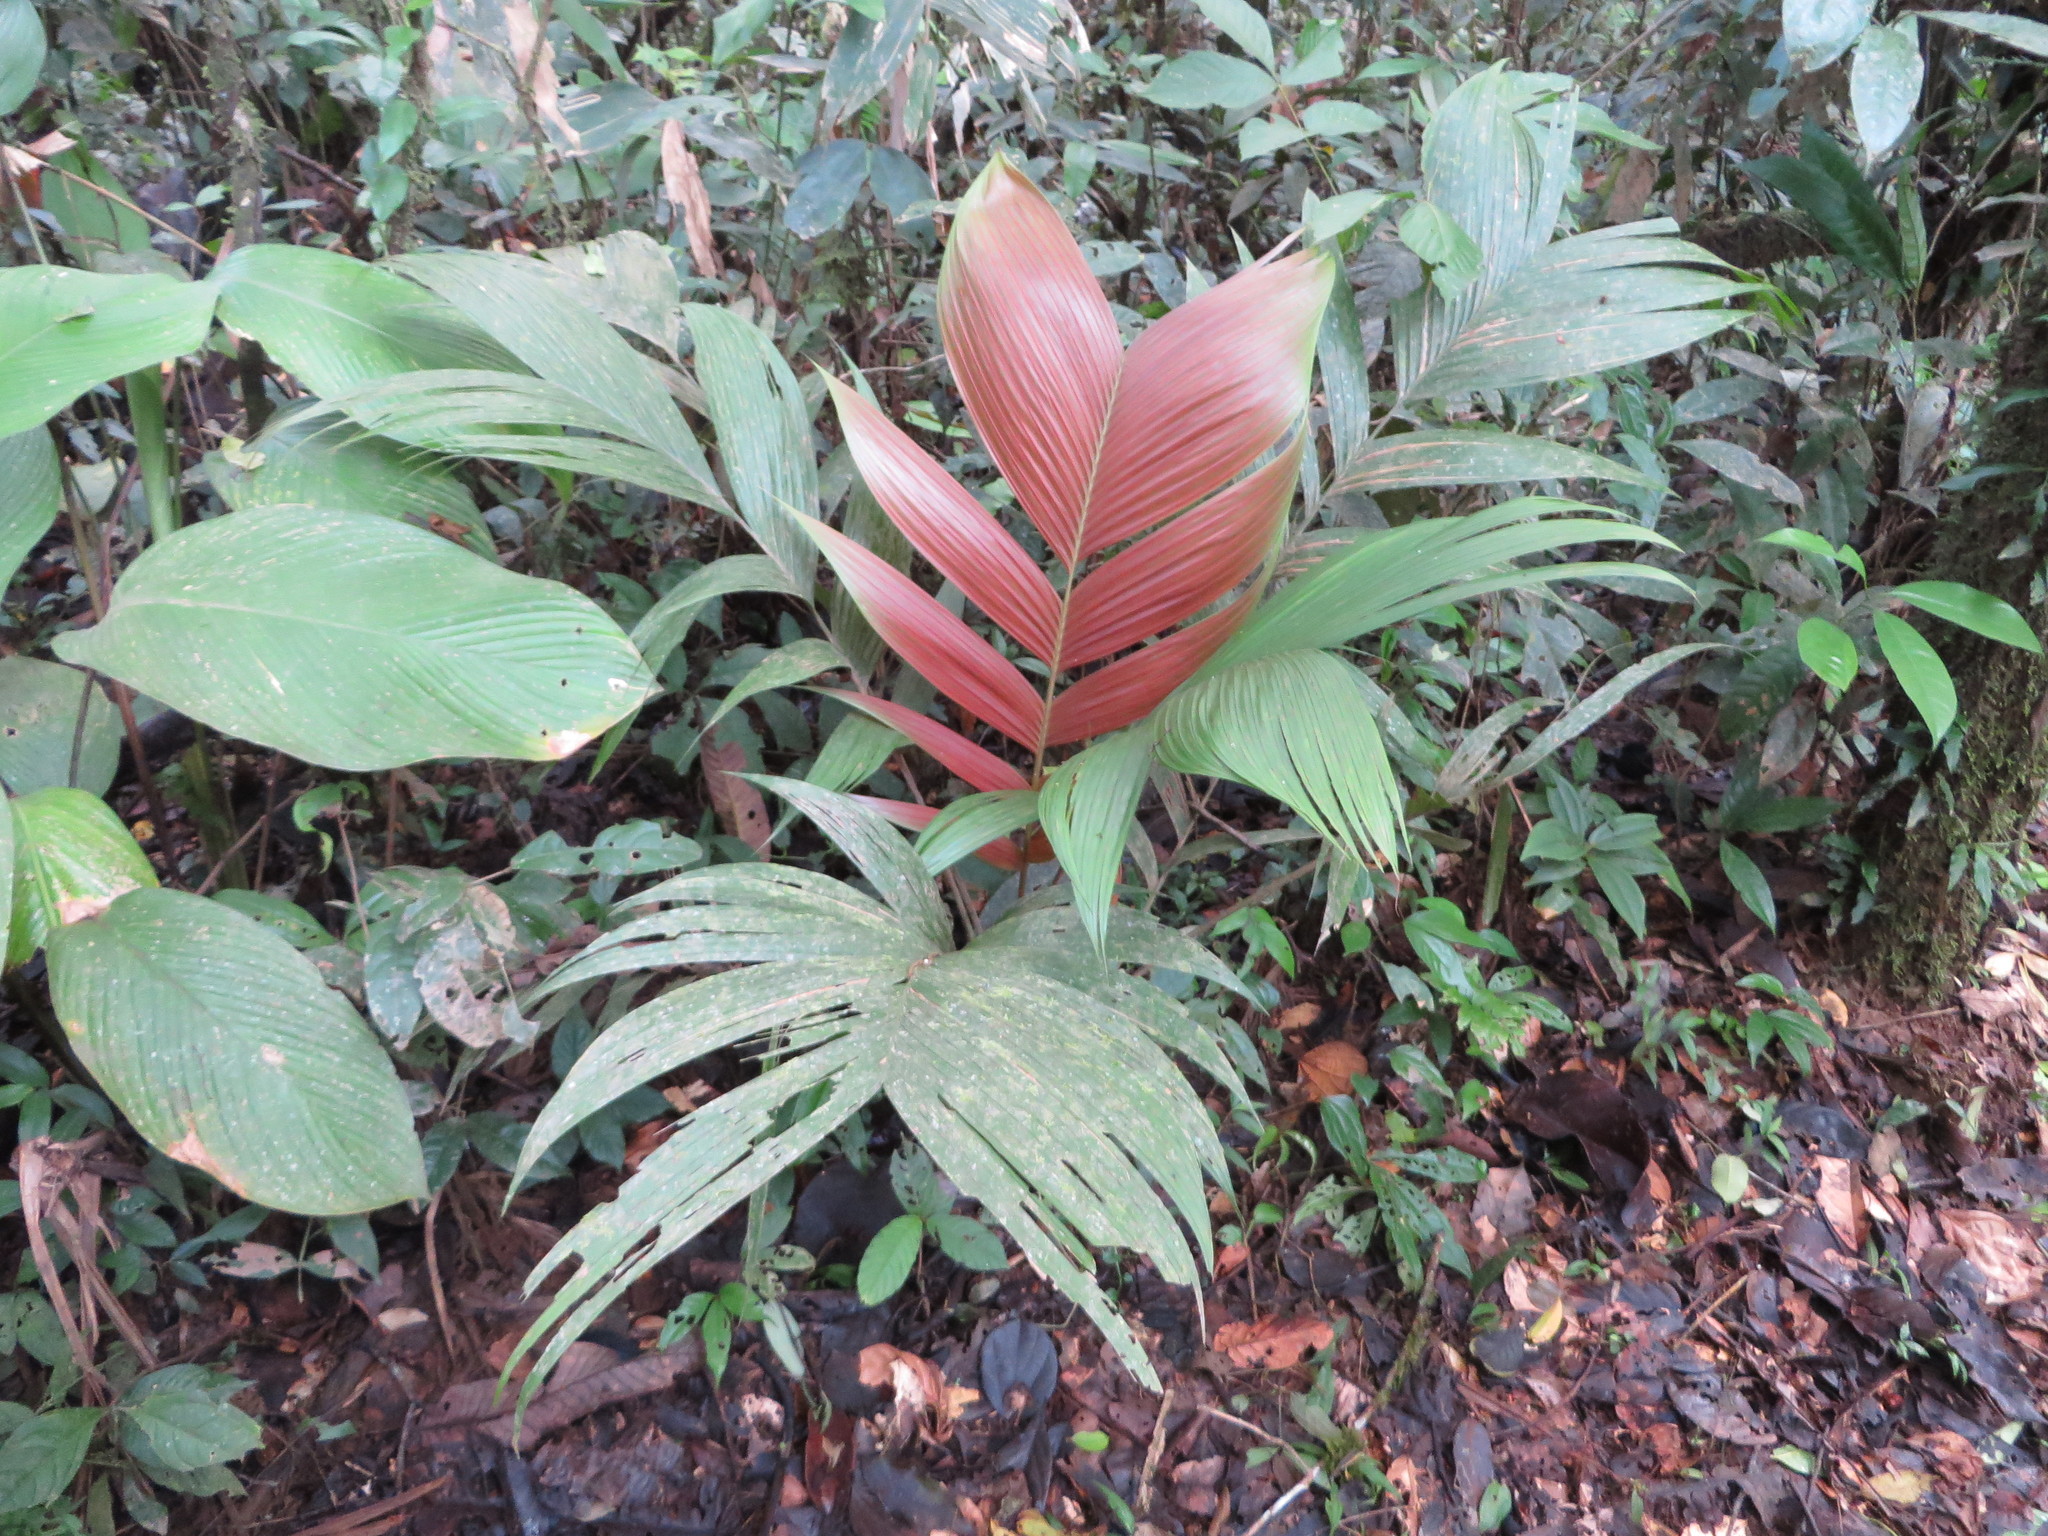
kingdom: Plantae
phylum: Tracheophyta
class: Liliopsida
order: Arecales
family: Arecaceae
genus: Geonoma
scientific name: Geonoma brongniartii
